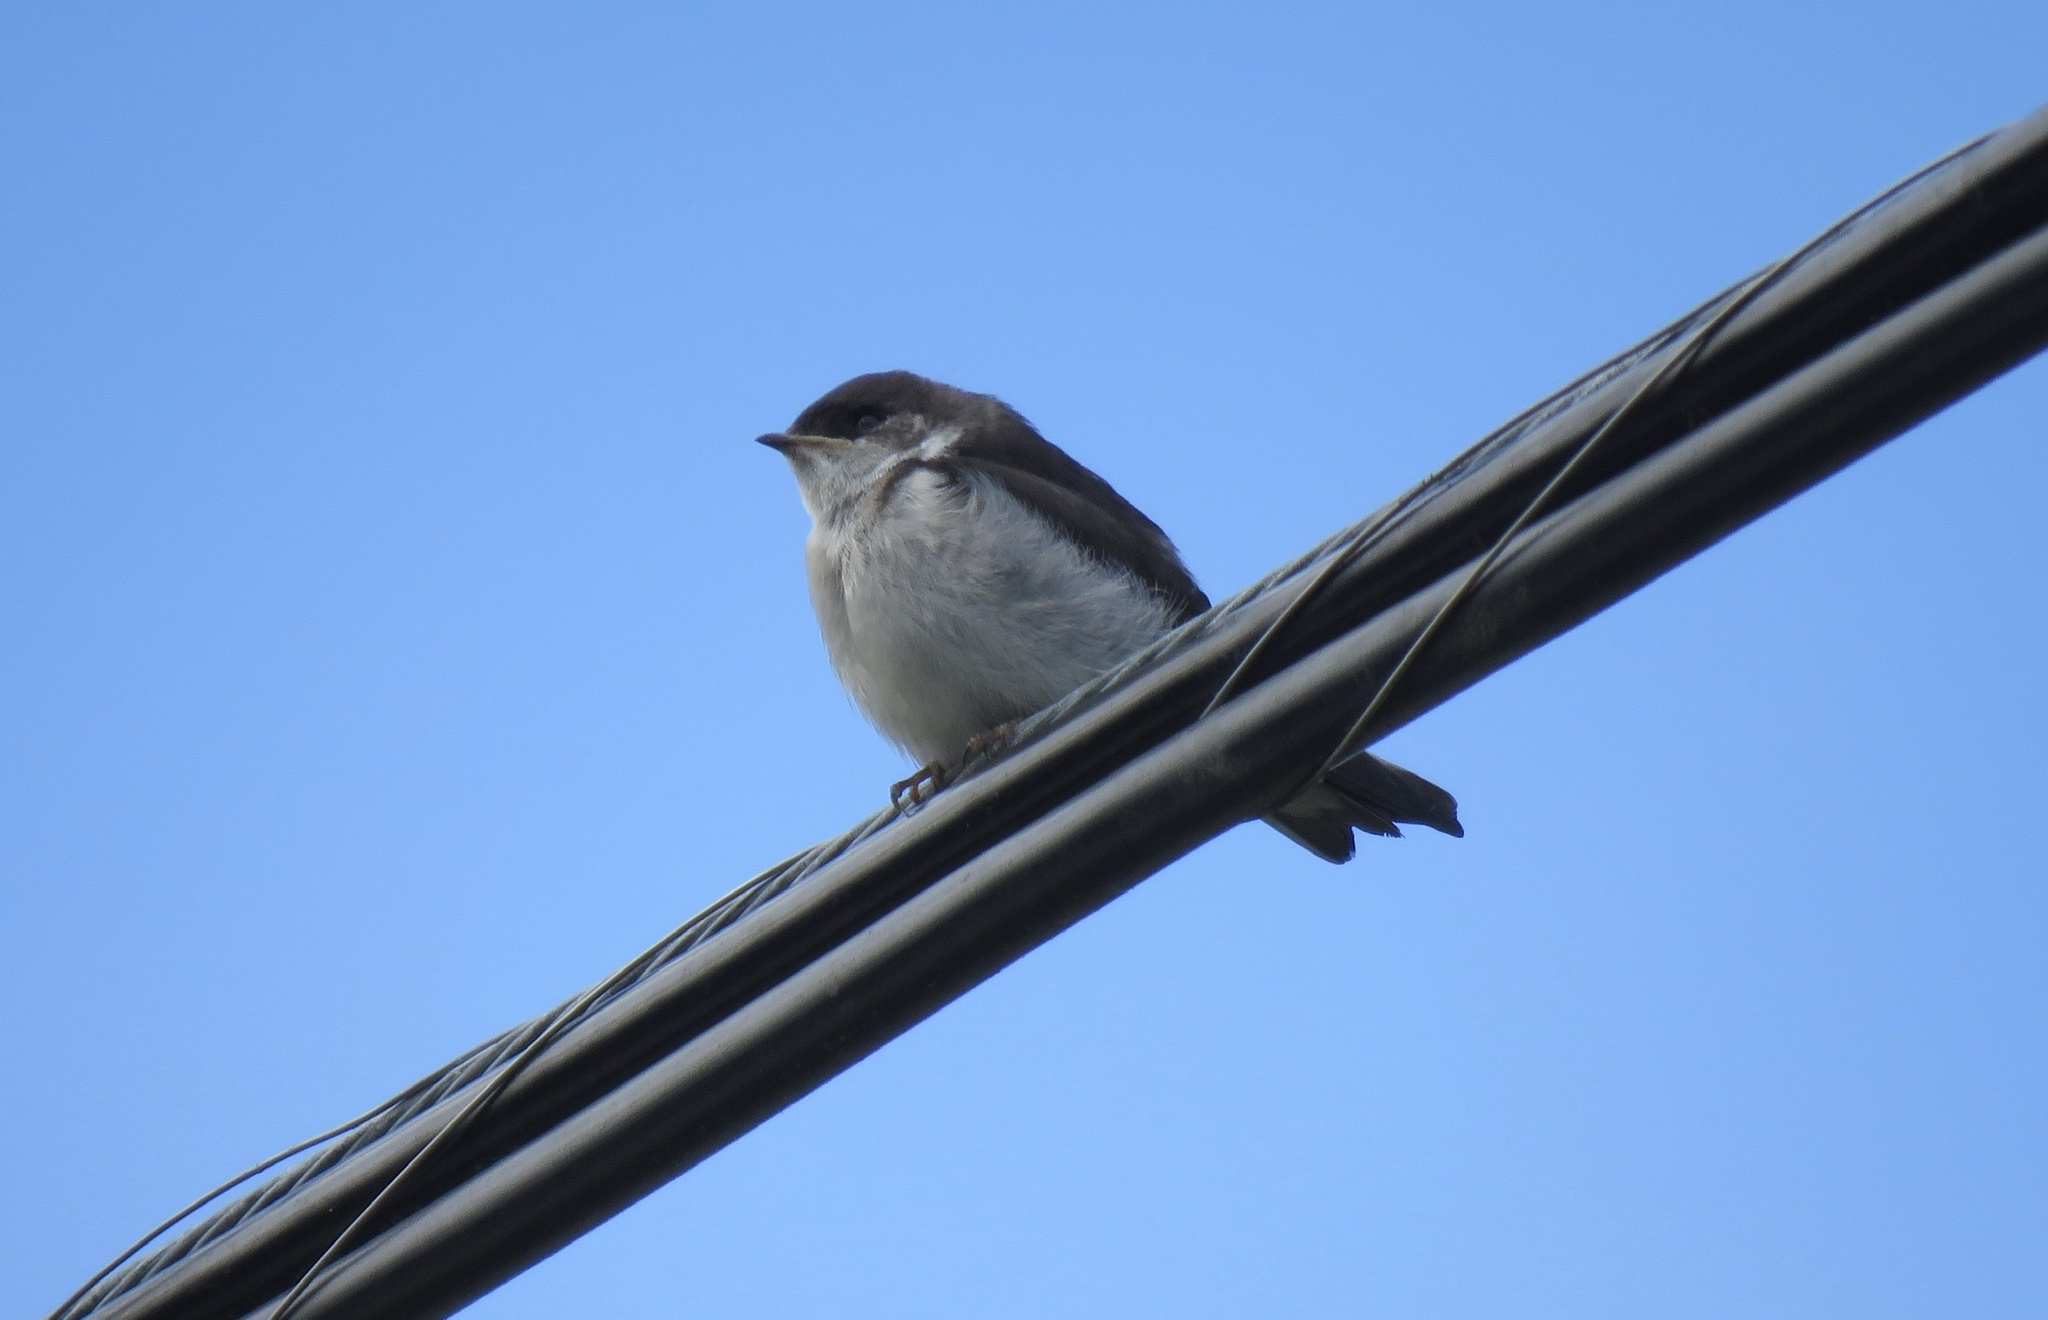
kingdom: Animalia
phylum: Chordata
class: Aves
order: Passeriformes
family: Hirundinidae
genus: Tachycineta
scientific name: Tachycineta thalassina
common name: Violet-green swallow
